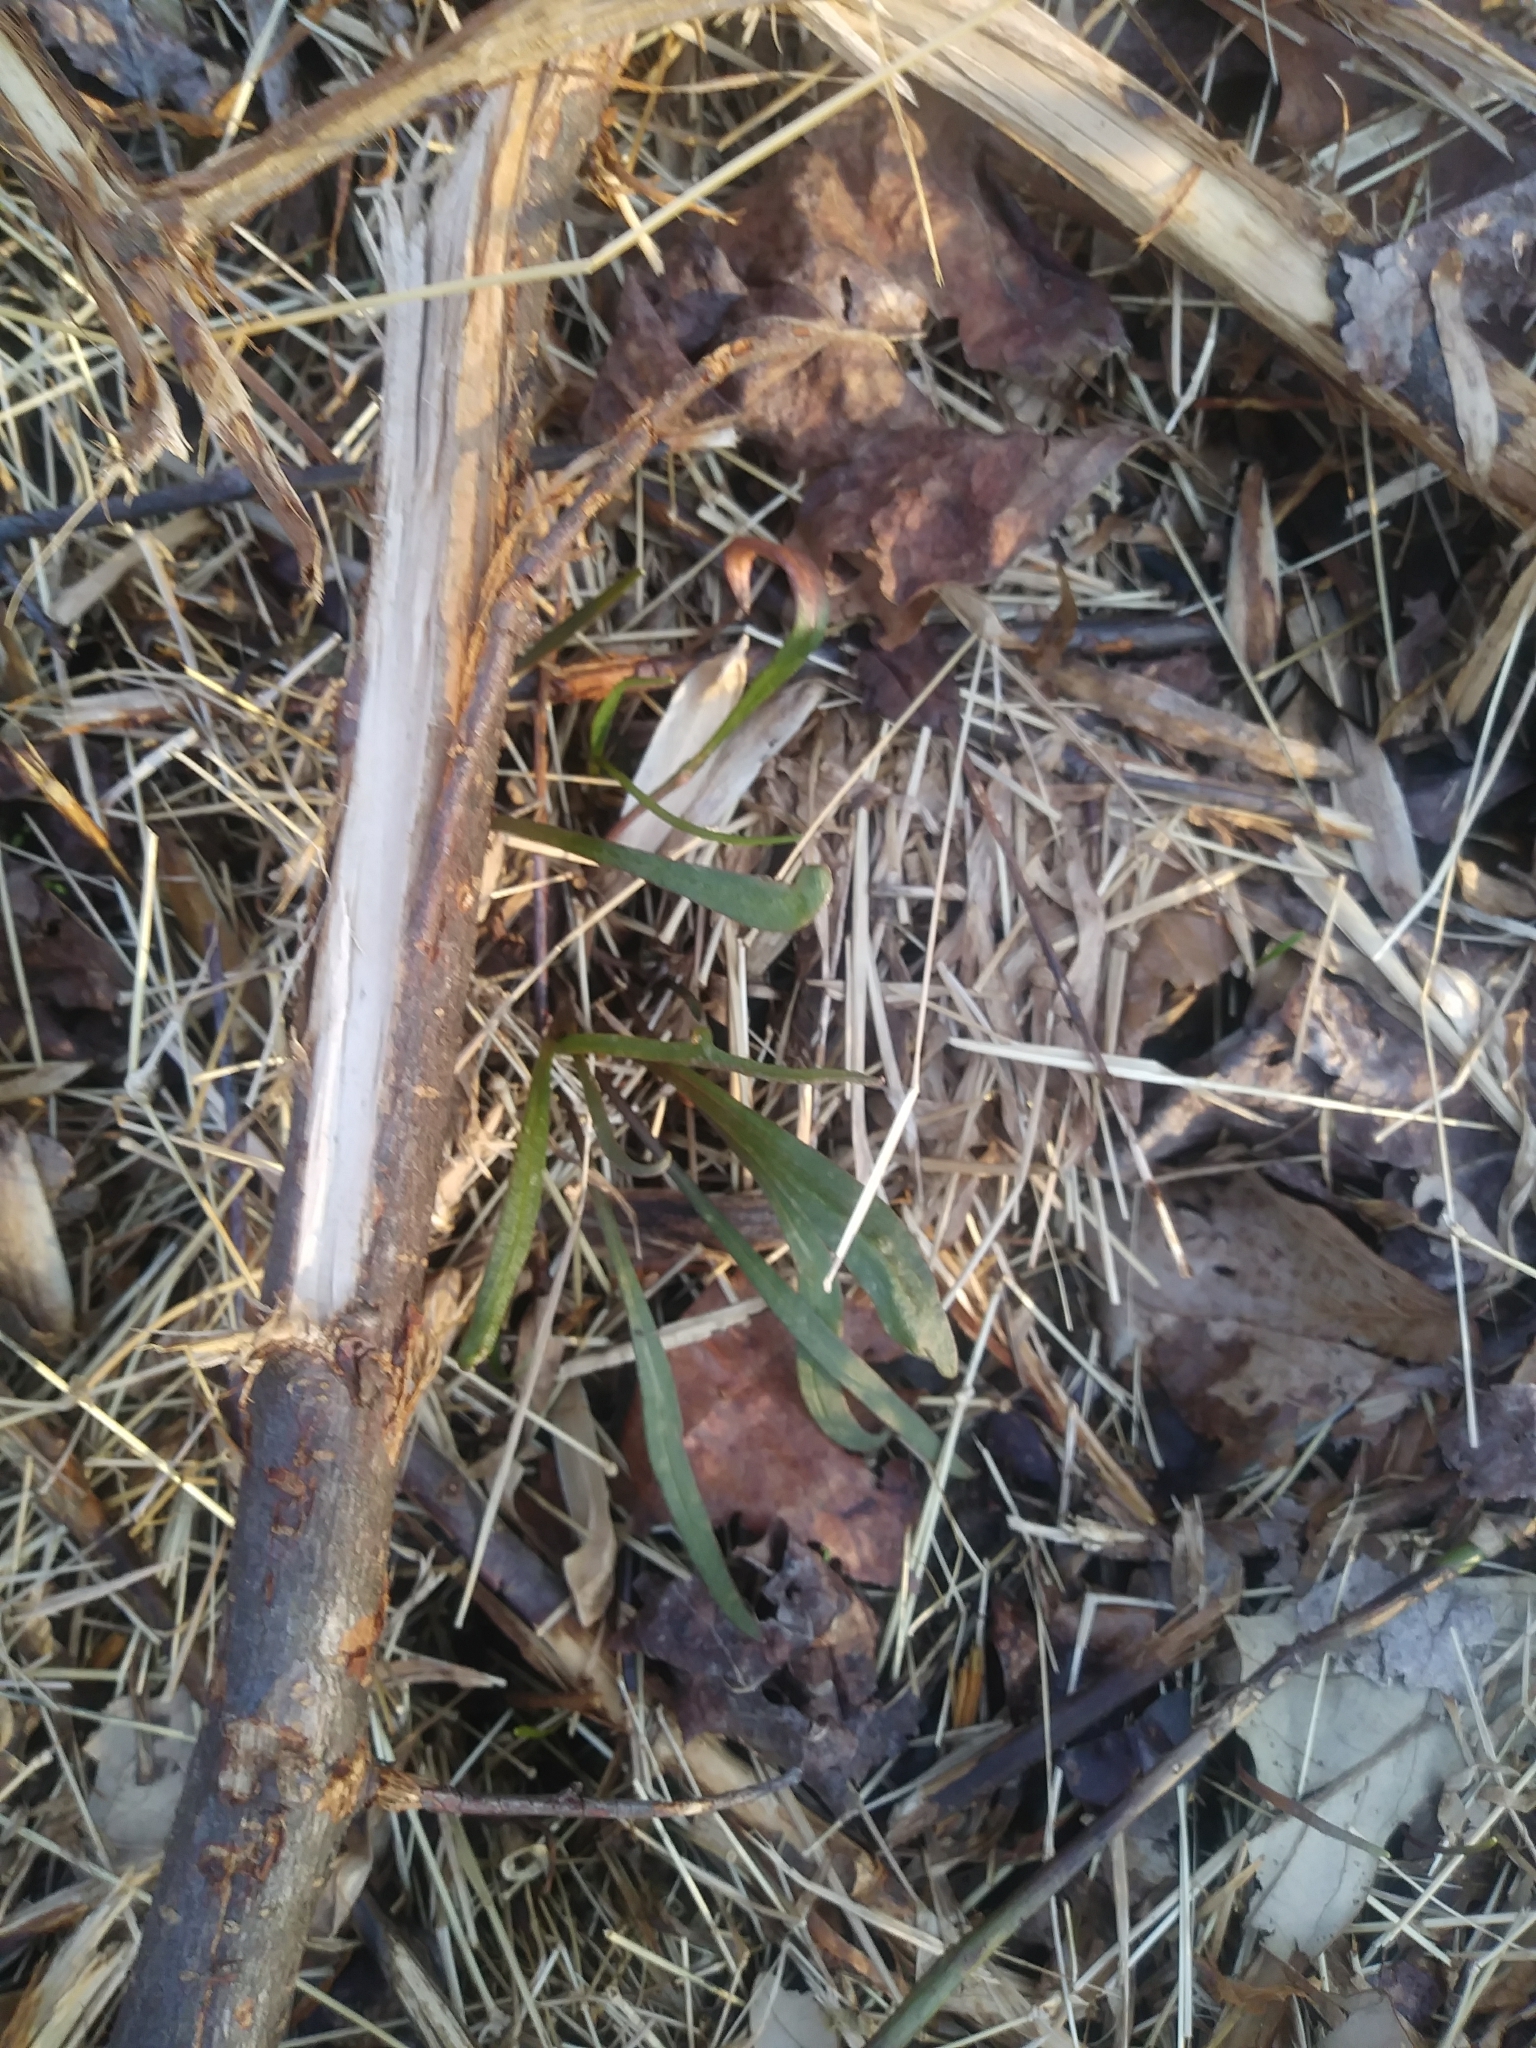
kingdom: Plantae
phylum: Tracheophyta
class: Magnoliopsida
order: Caryophyllales
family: Montiaceae
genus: Claytonia
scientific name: Claytonia virginica
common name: Virginia springbeauty
